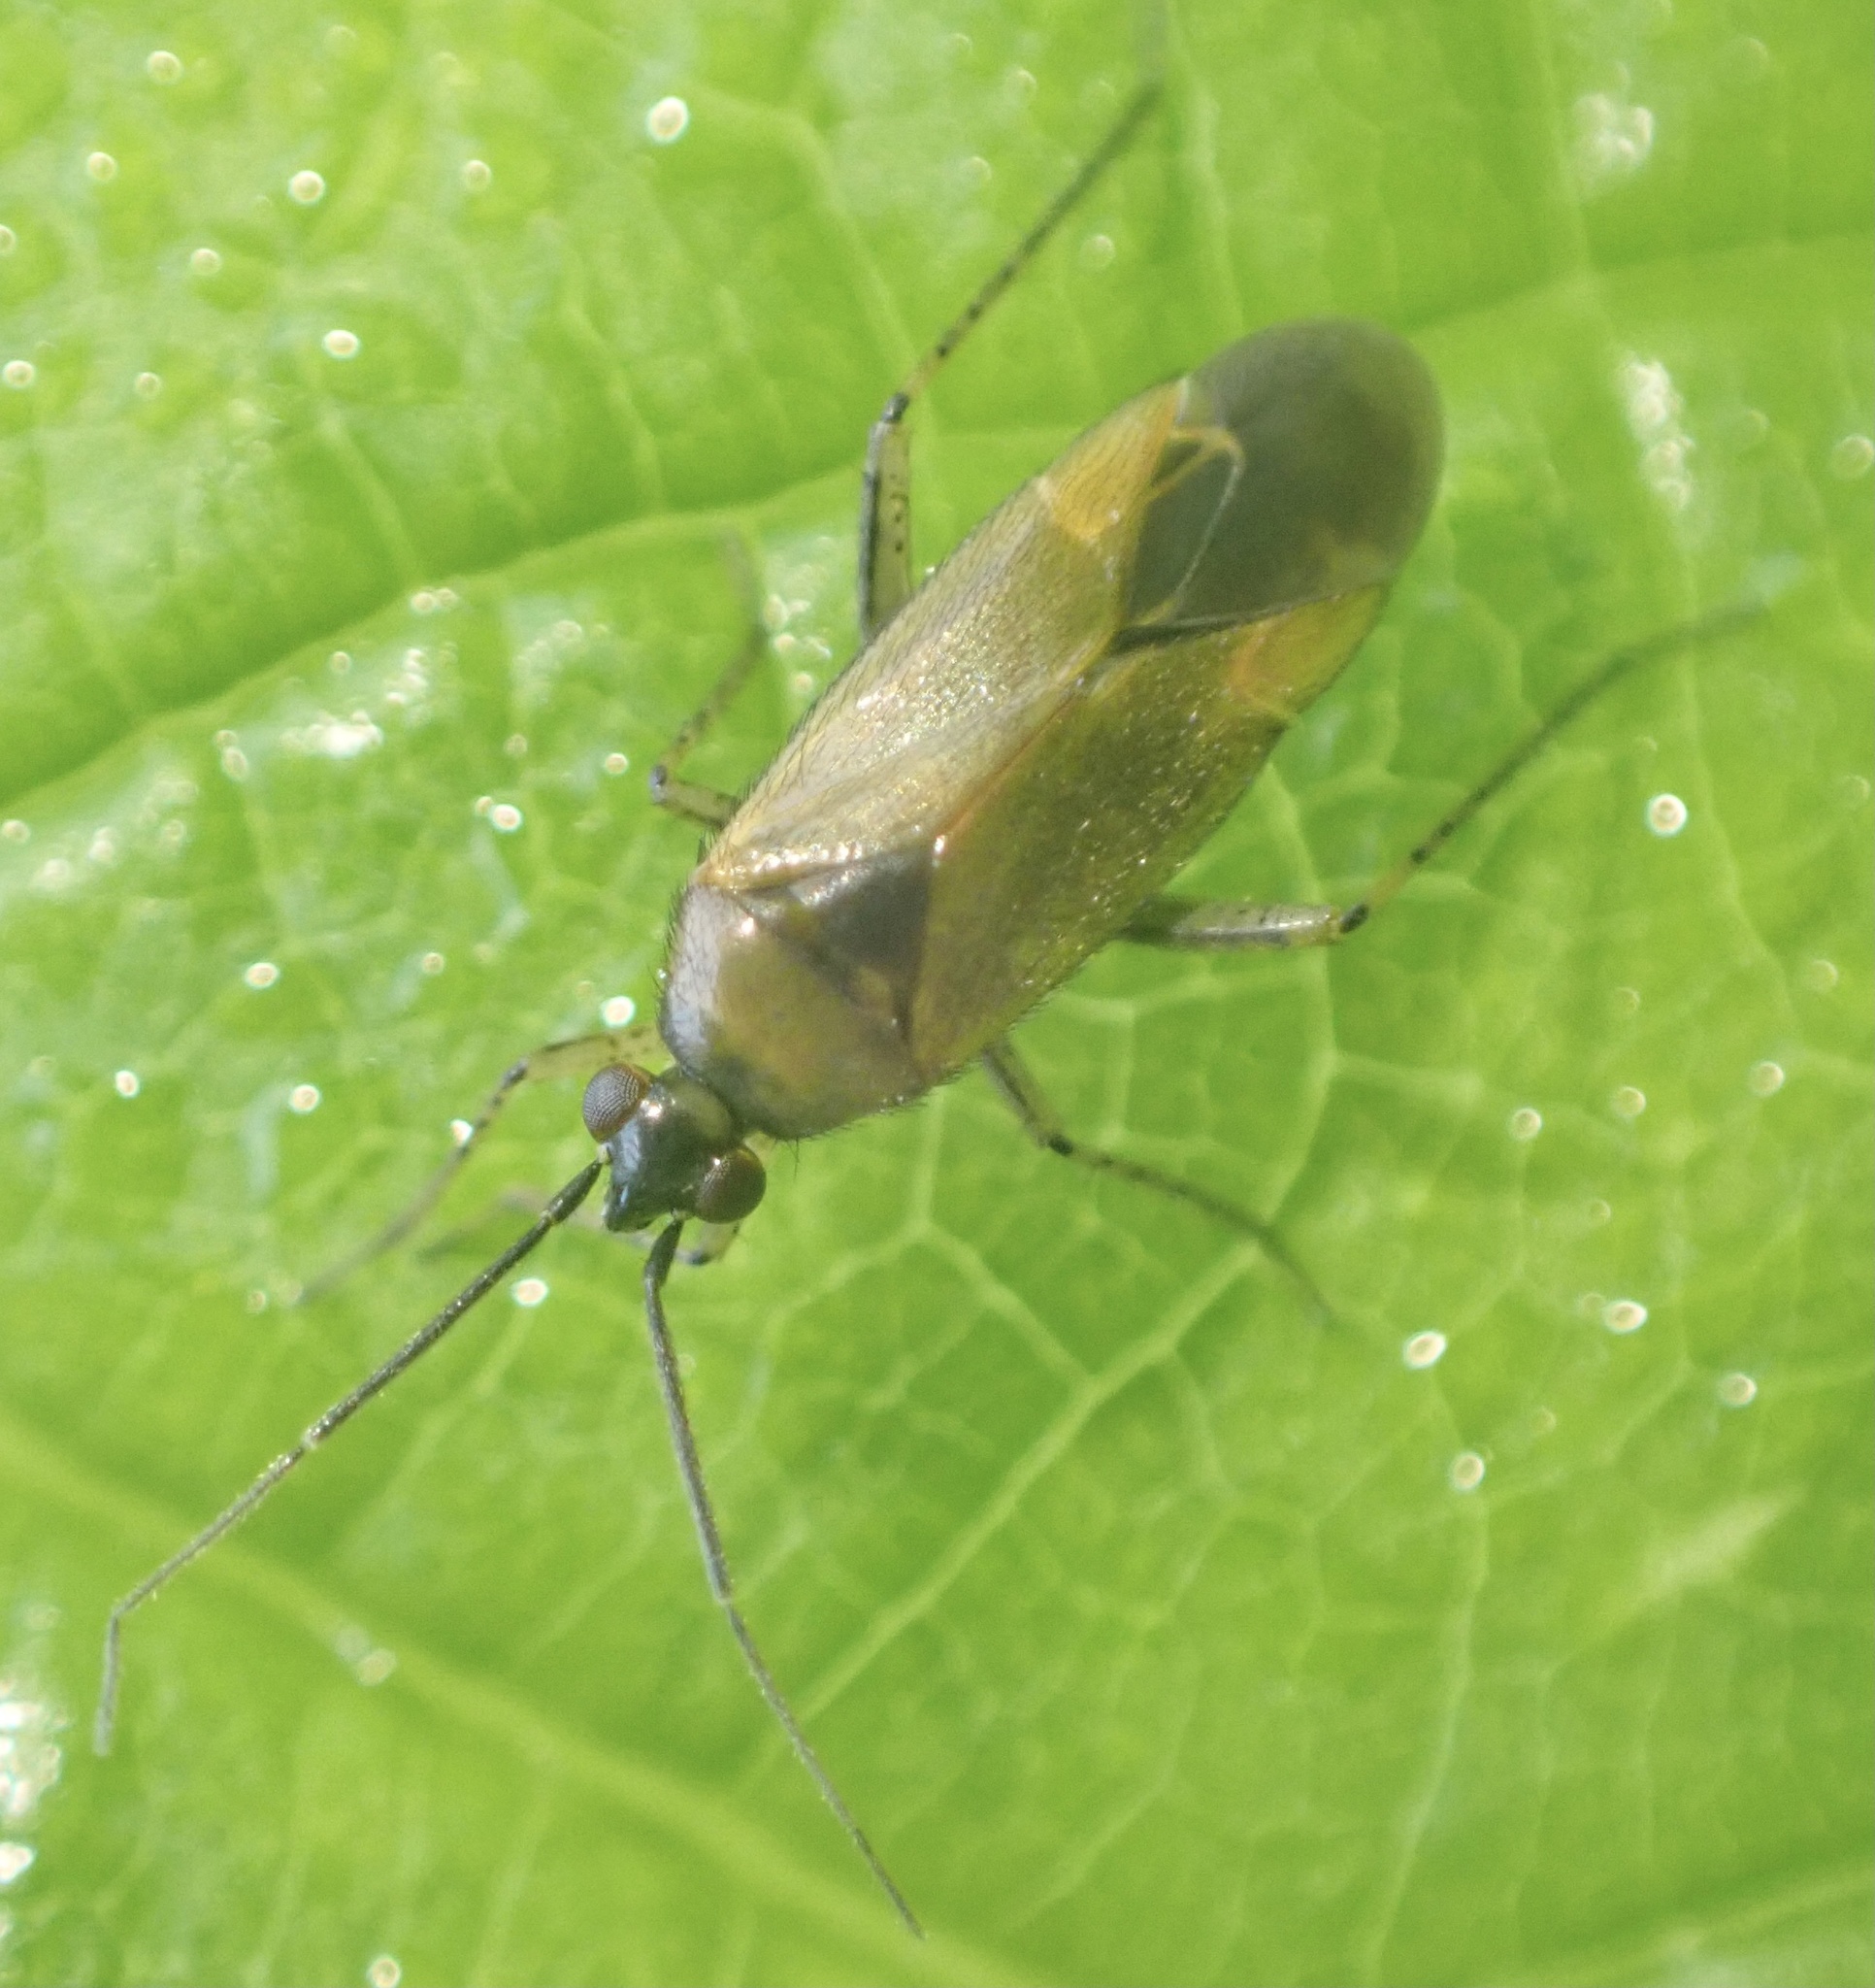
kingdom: Animalia
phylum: Arthropoda
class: Insecta
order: Hemiptera
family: Miridae
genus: Plagiognathus
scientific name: Plagiognathus arbustorum
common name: Plant bug
